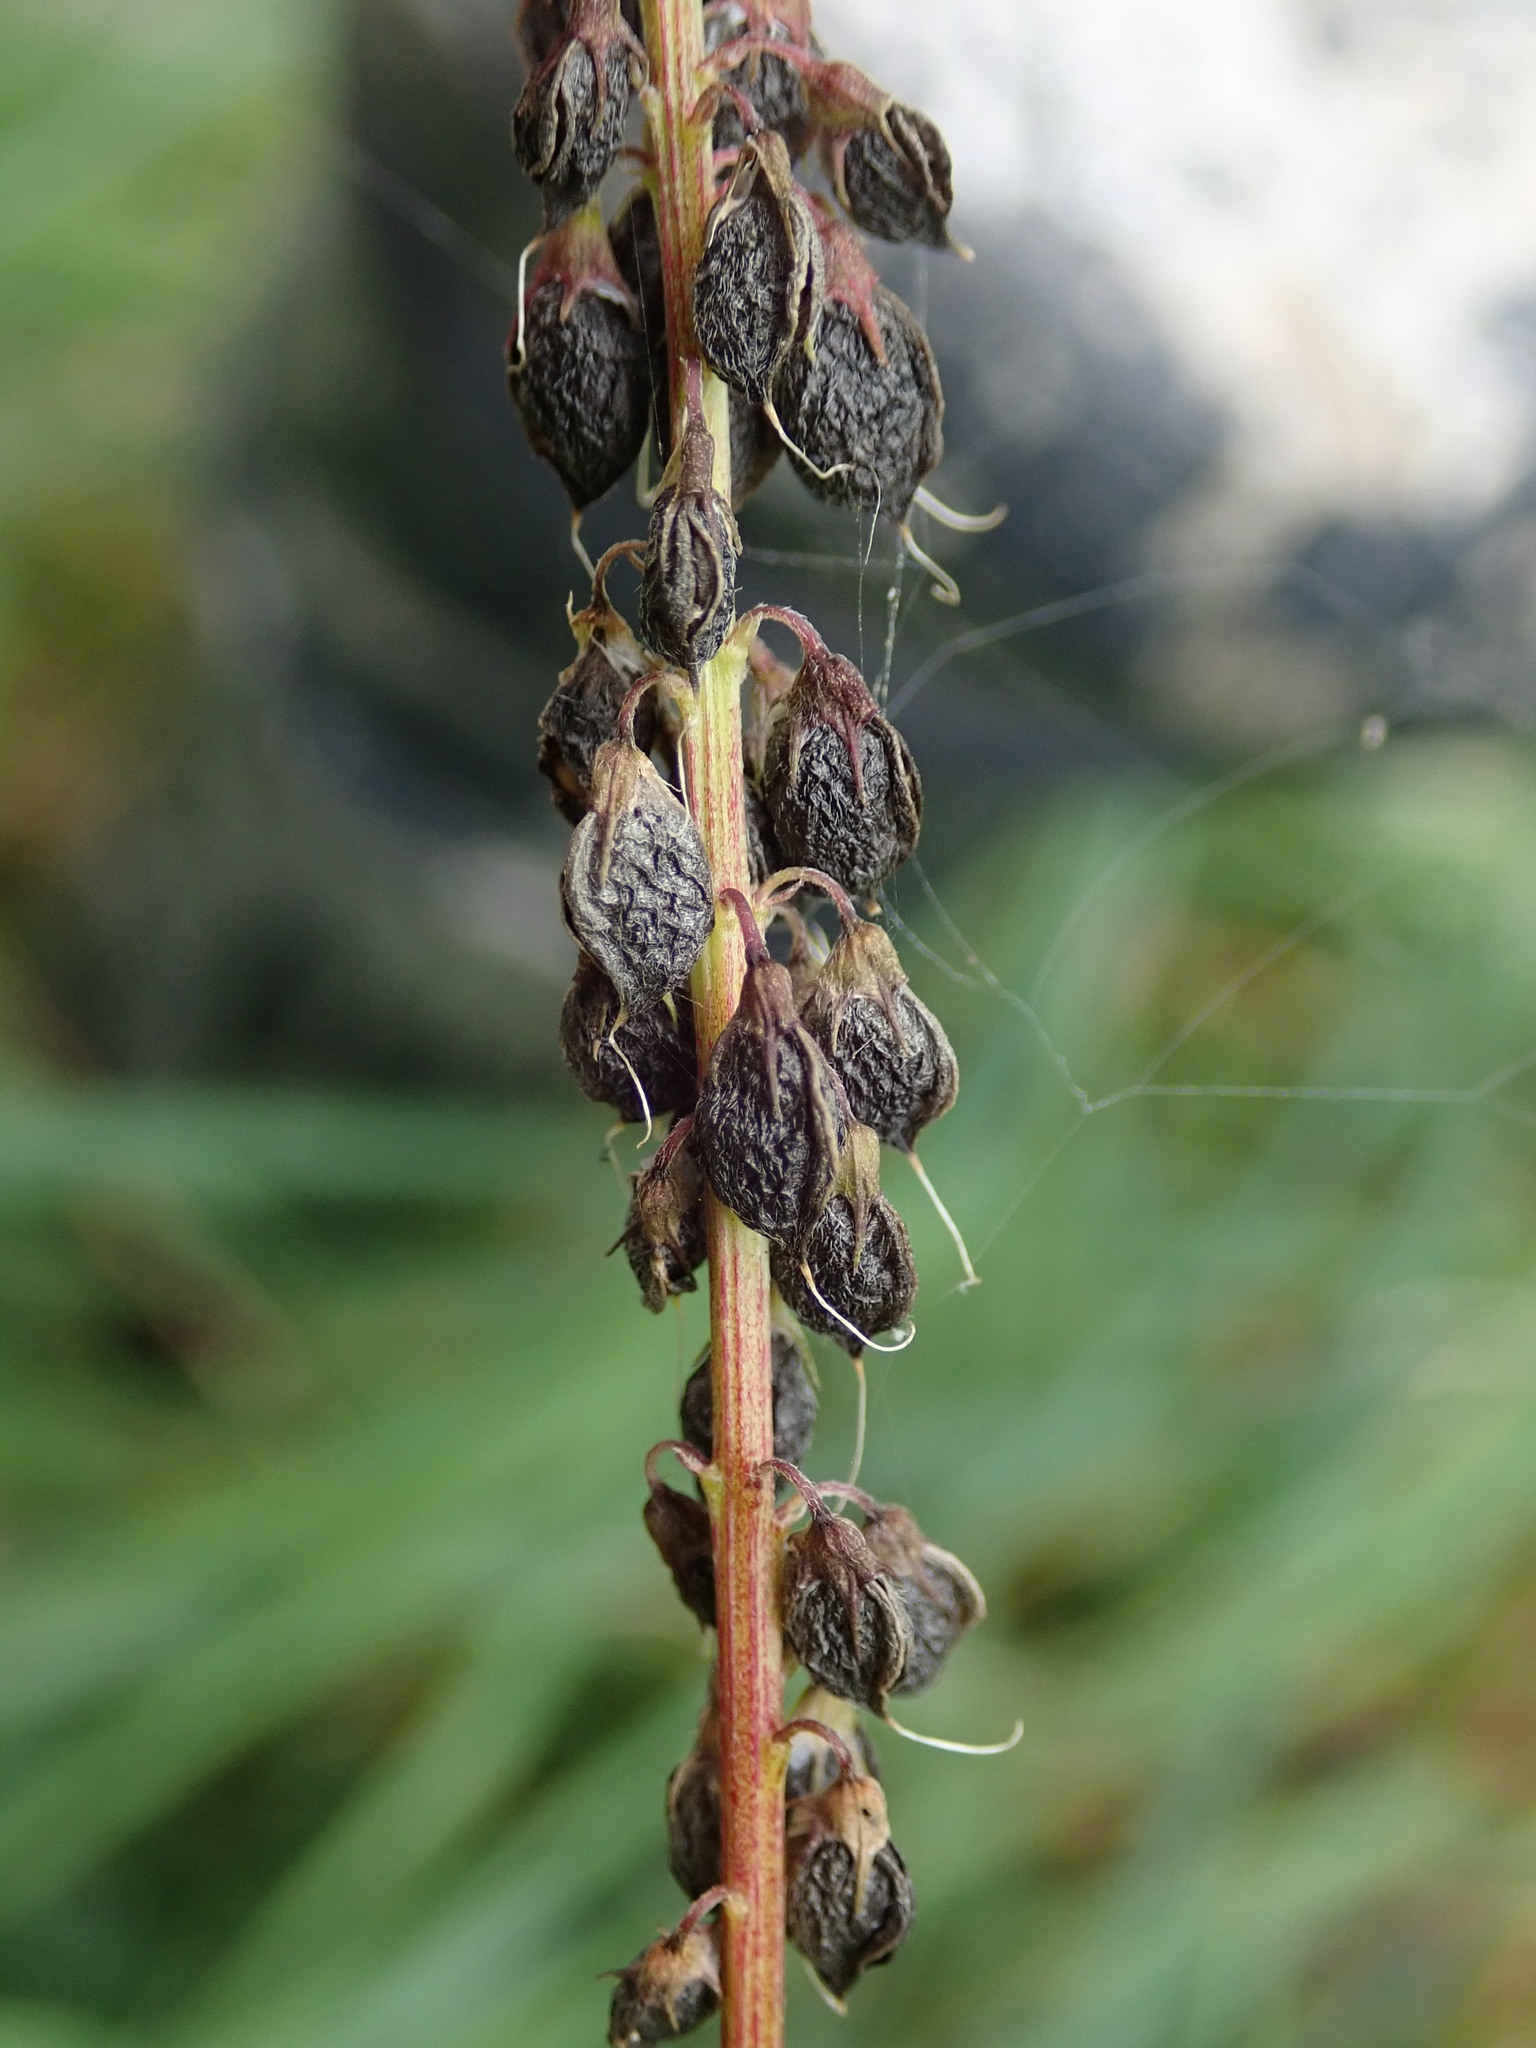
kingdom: Plantae
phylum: Tracheophyta
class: Magnoliopsida
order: Fabales
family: Fabaceae
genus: Melilotus
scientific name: Melilotus altissimus
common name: Tall melilot
